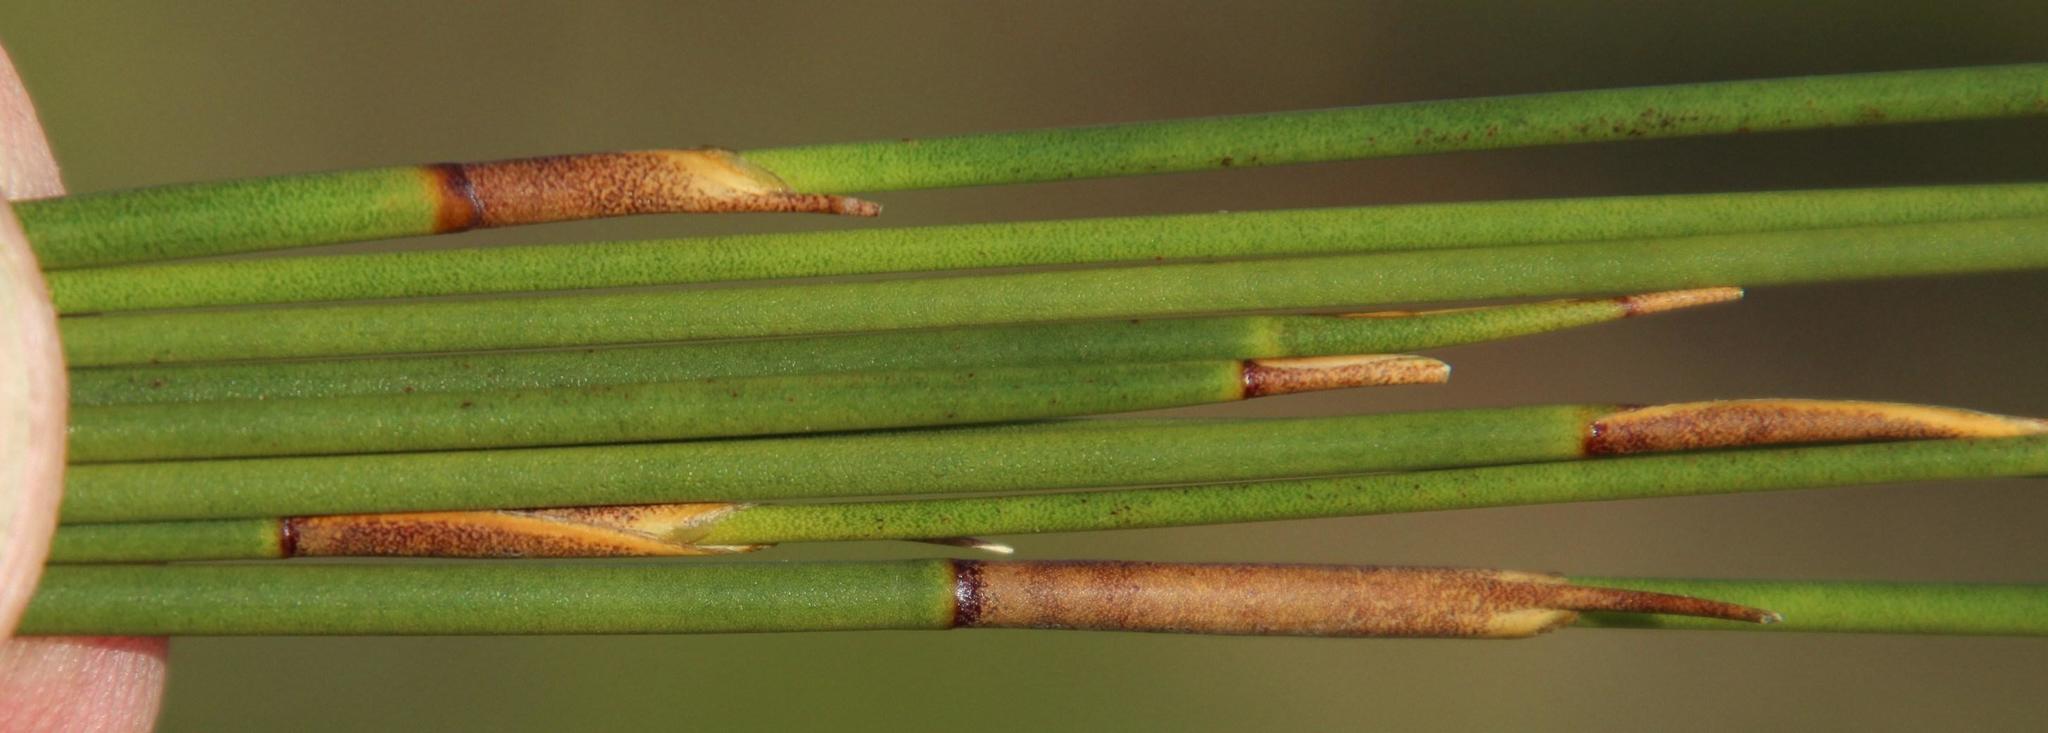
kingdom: Plantae
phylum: Tracheophyta
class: Liliopsida
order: Poales
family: Restionaceae
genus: Hypodiscus
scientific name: Hypodiscus aristatus
